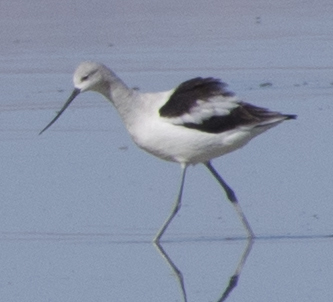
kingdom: Animalia
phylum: Chordata
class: Aves
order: Charadriiformes
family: Recurvirostridae
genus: Recurvirostra
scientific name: Recurvirostra americana
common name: American avocet
